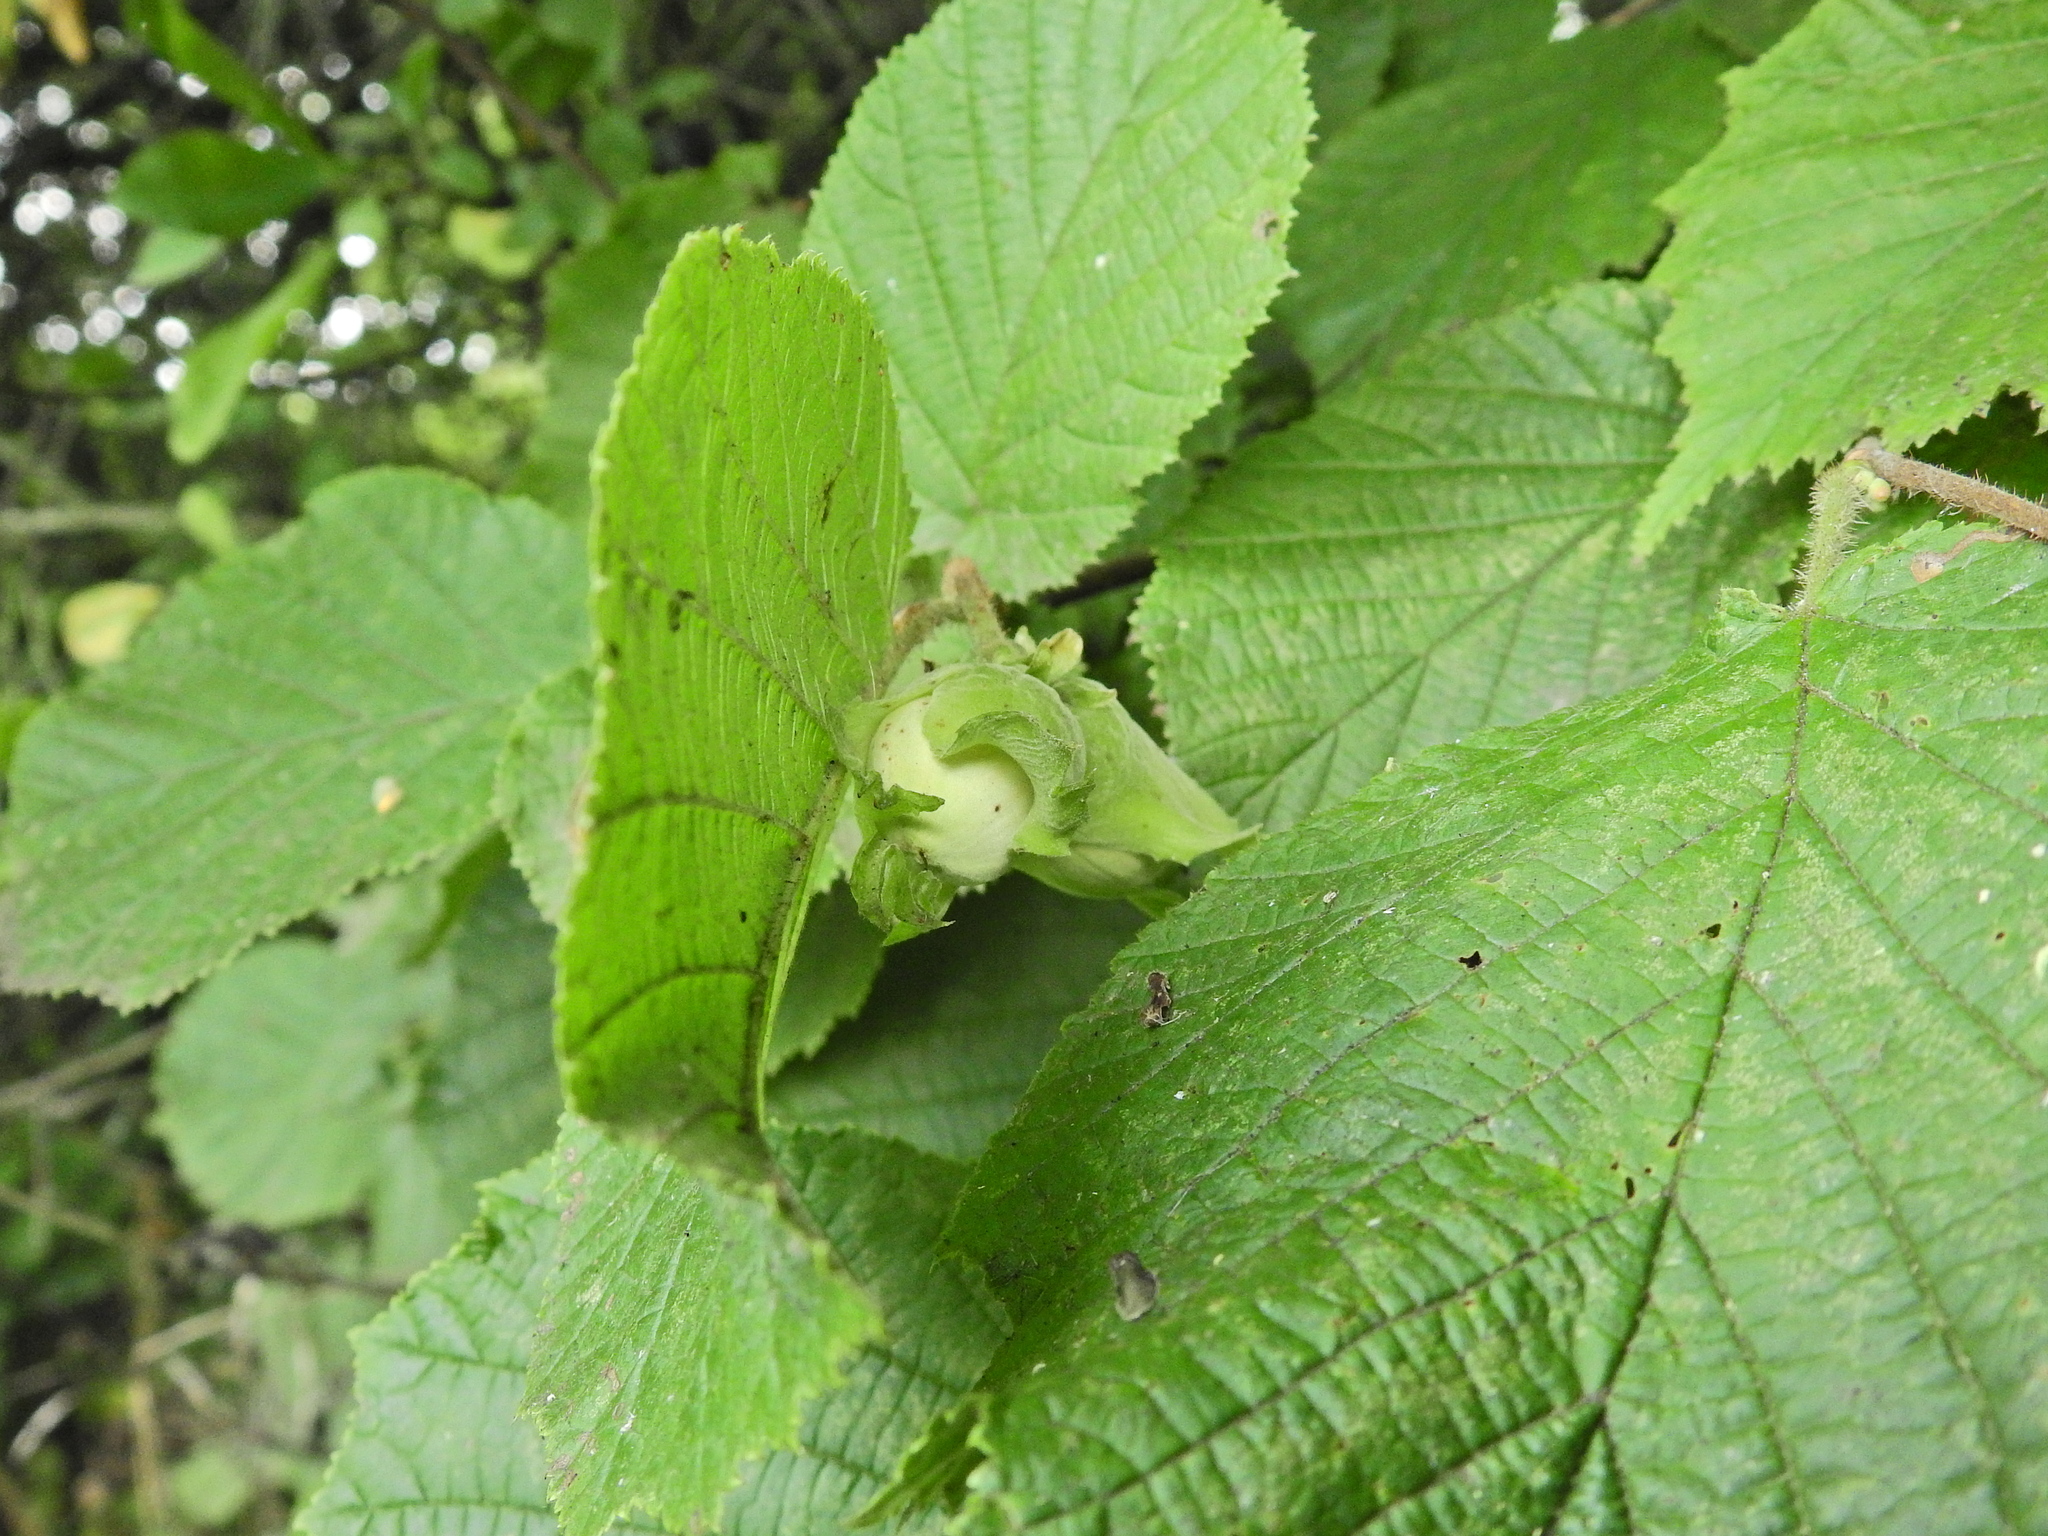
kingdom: Plantae
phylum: Tracheophyta
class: Magnoliopsida
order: Fagales
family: Betulaceae
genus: Corylus
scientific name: Corylus avellana
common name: European hazel
